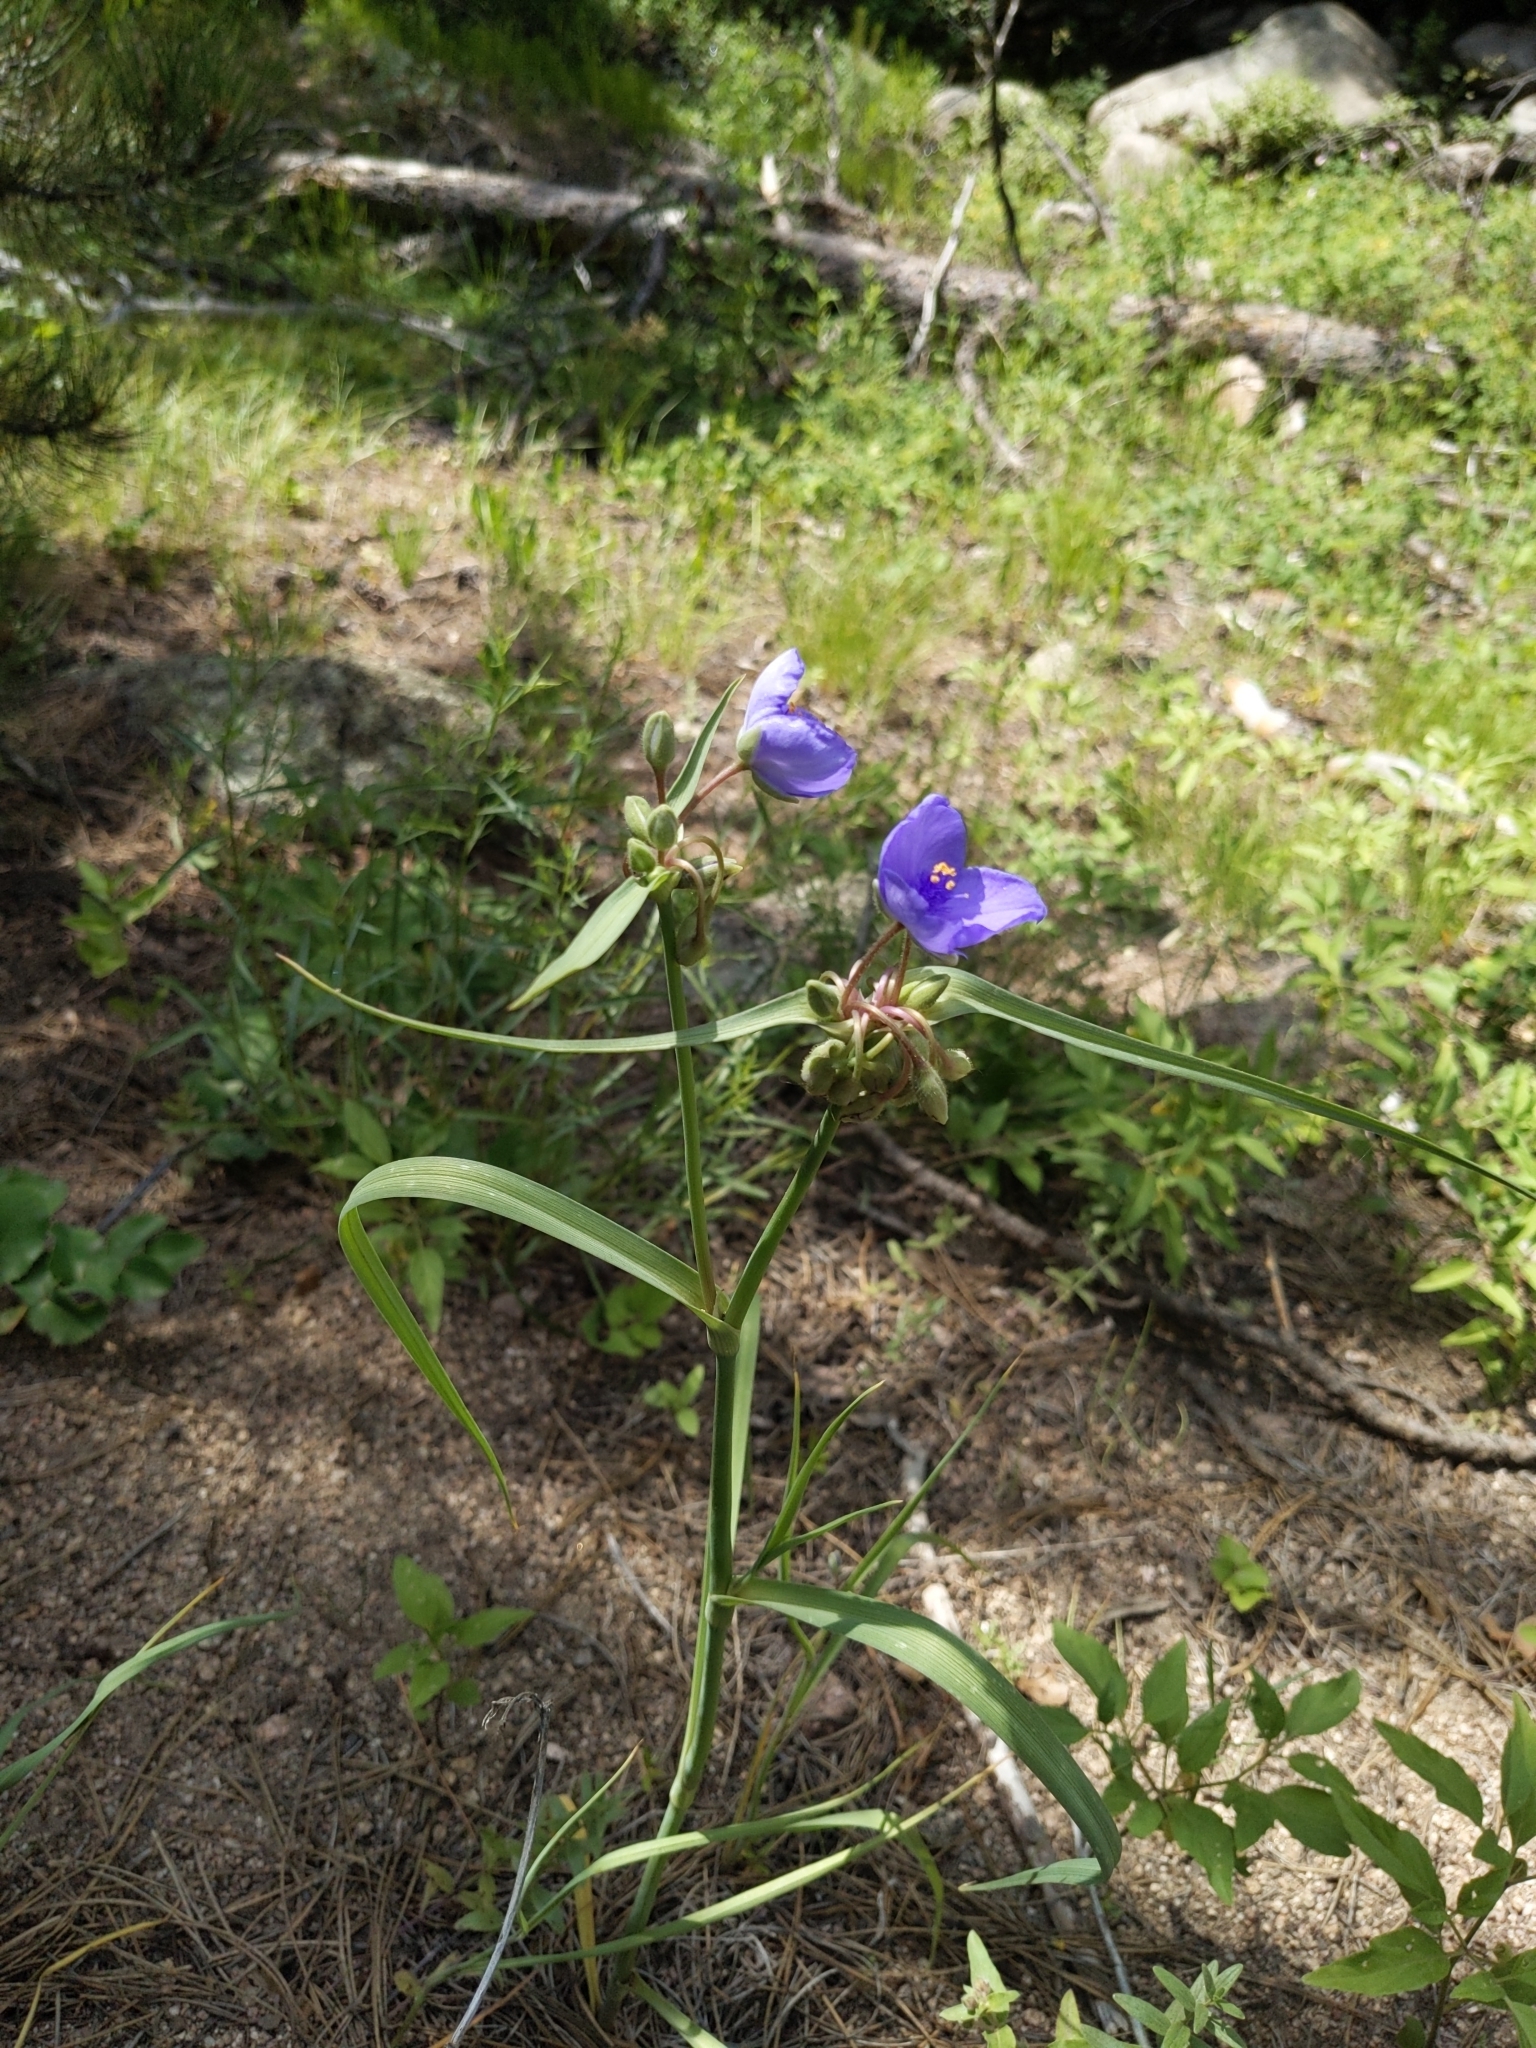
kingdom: Plantae
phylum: Tracheophyta
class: Liliopsida
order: Commelinales
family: Commelinaceae
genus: Tradescantia
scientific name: Tradescantia occidentalis
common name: Prairie spiderwort
